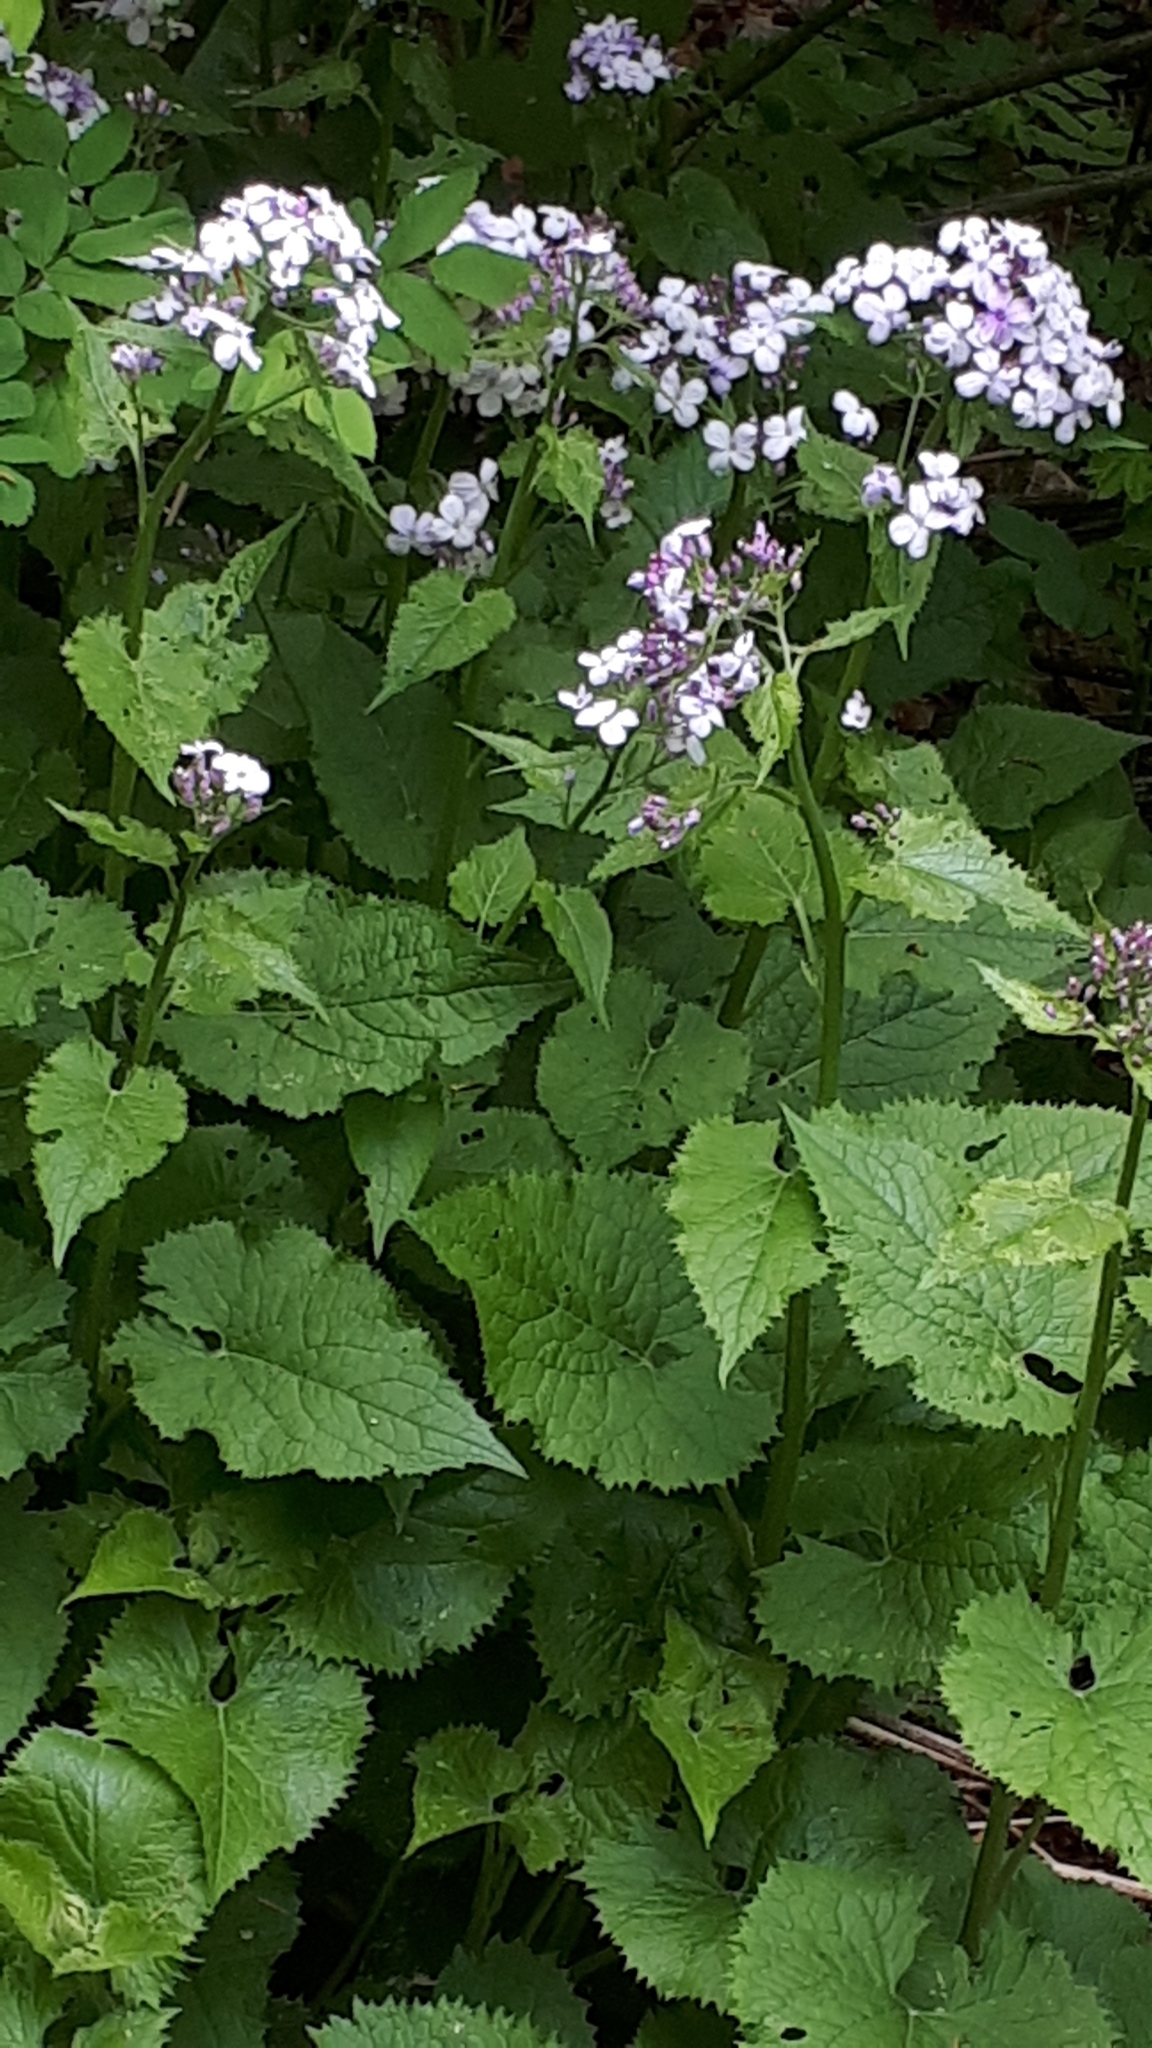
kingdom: Plantae
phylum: Tracheophyta
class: Magnoliopsida
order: Brassicales
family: Brassicaceae
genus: Lunaria
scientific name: Lunaria rediviva
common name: Perennial honesty
